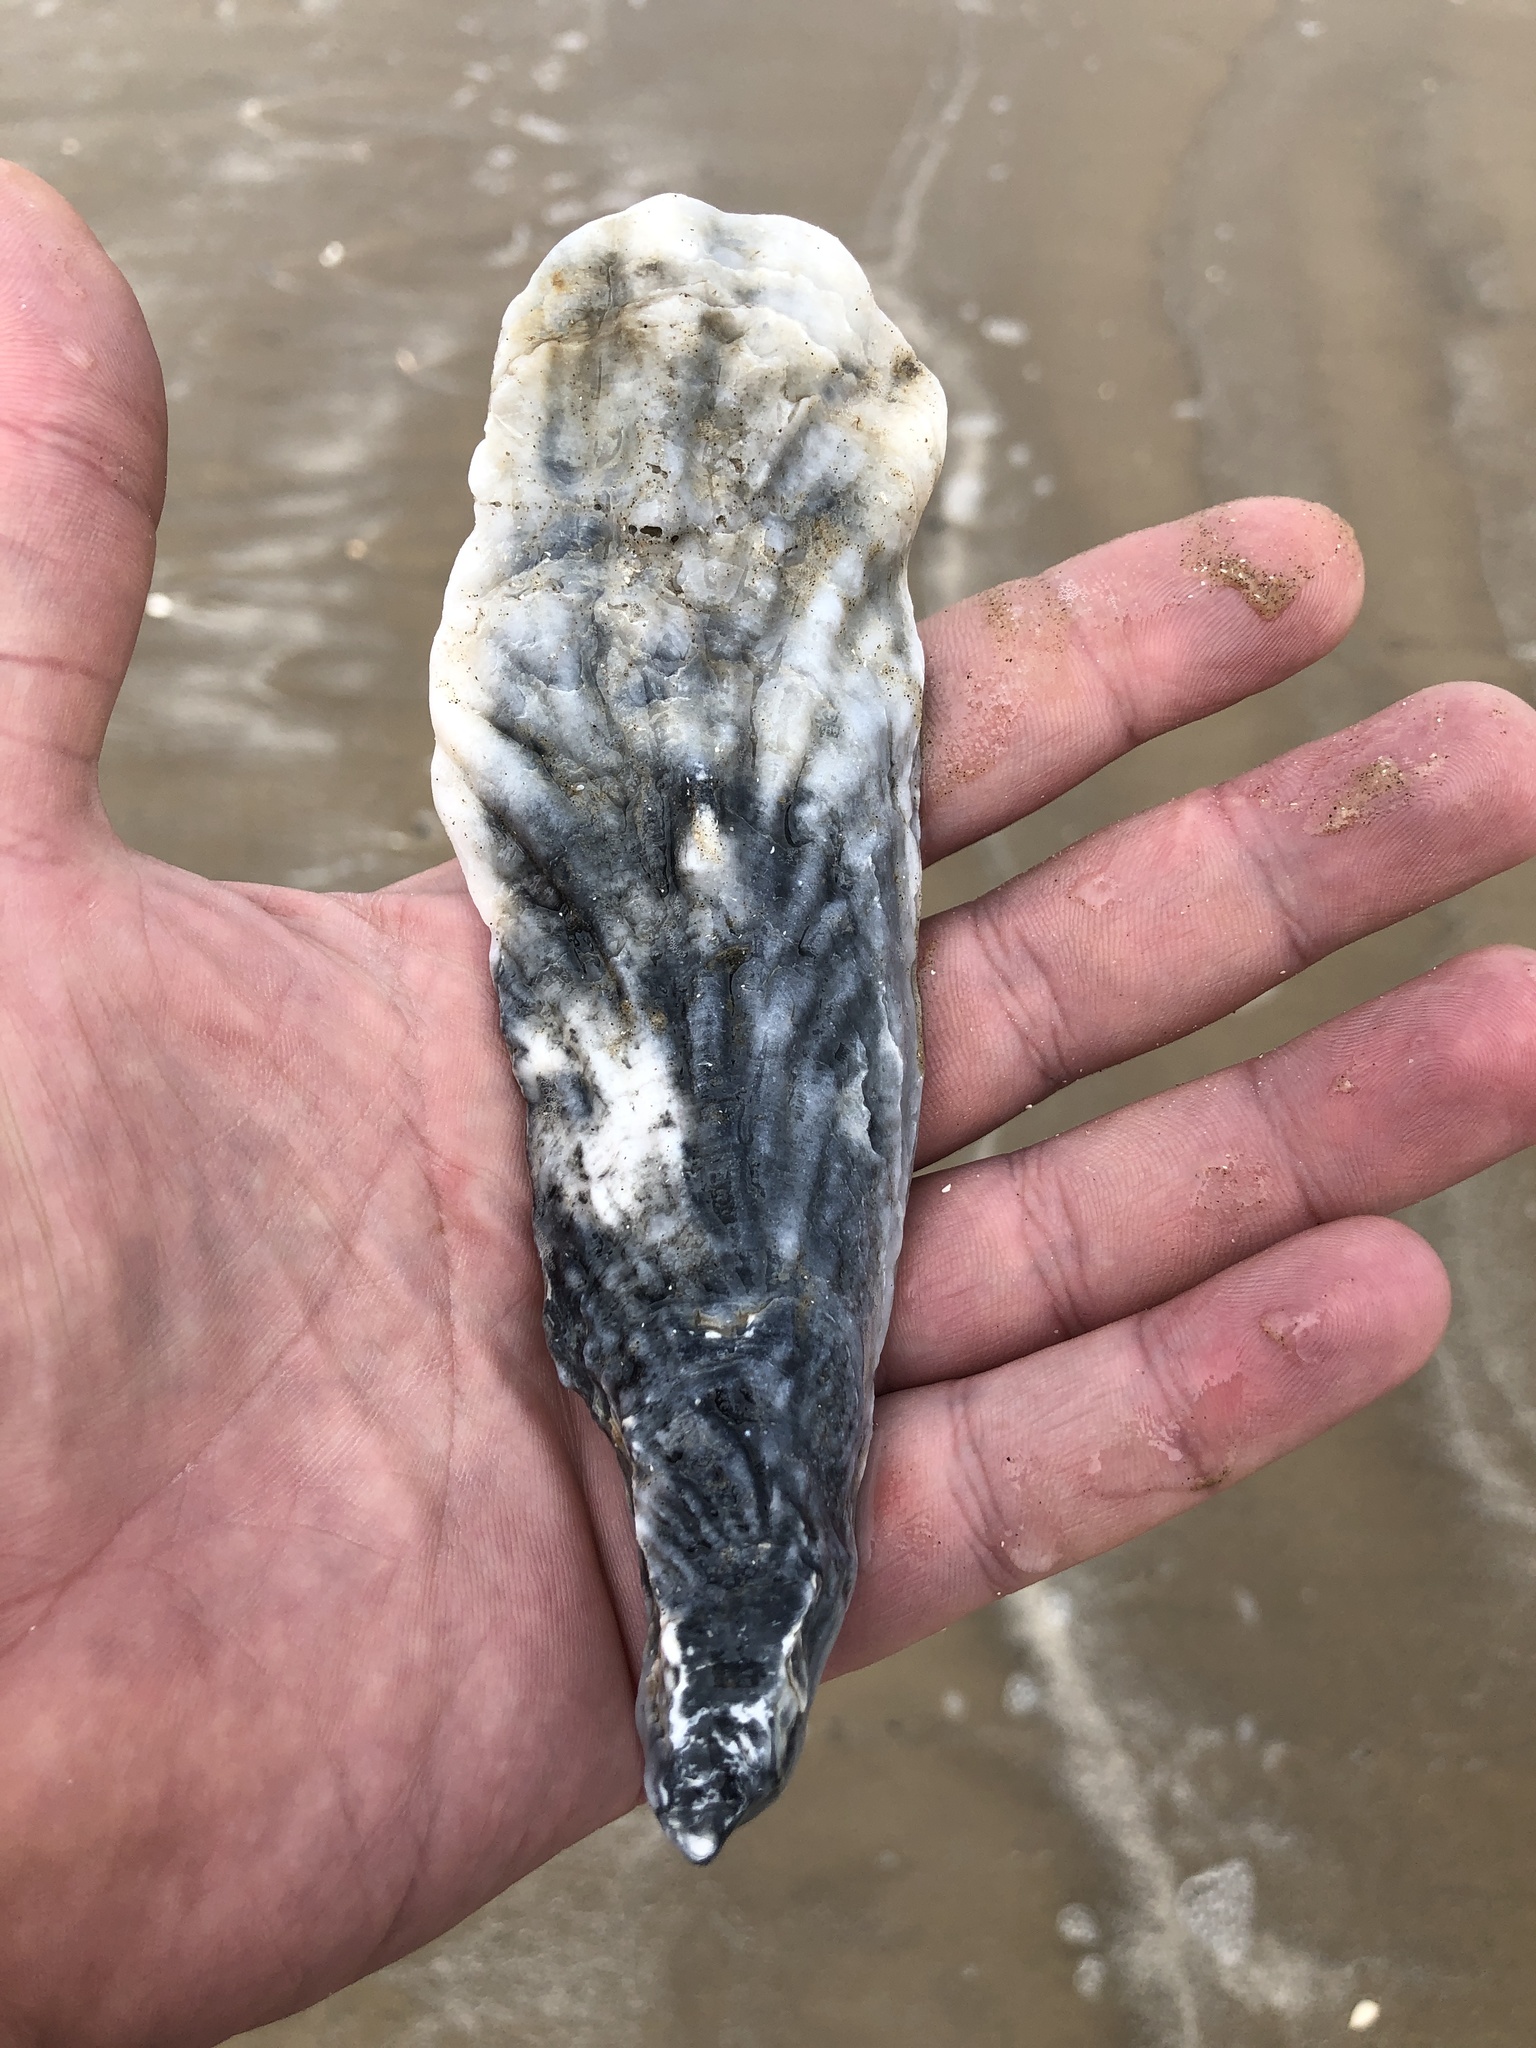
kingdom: Animalia
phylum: Mollusca
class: Bivalvia
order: Ostreida
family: Ostreidae
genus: Crassostrea
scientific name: Crassostrea virginica
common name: American oyster
